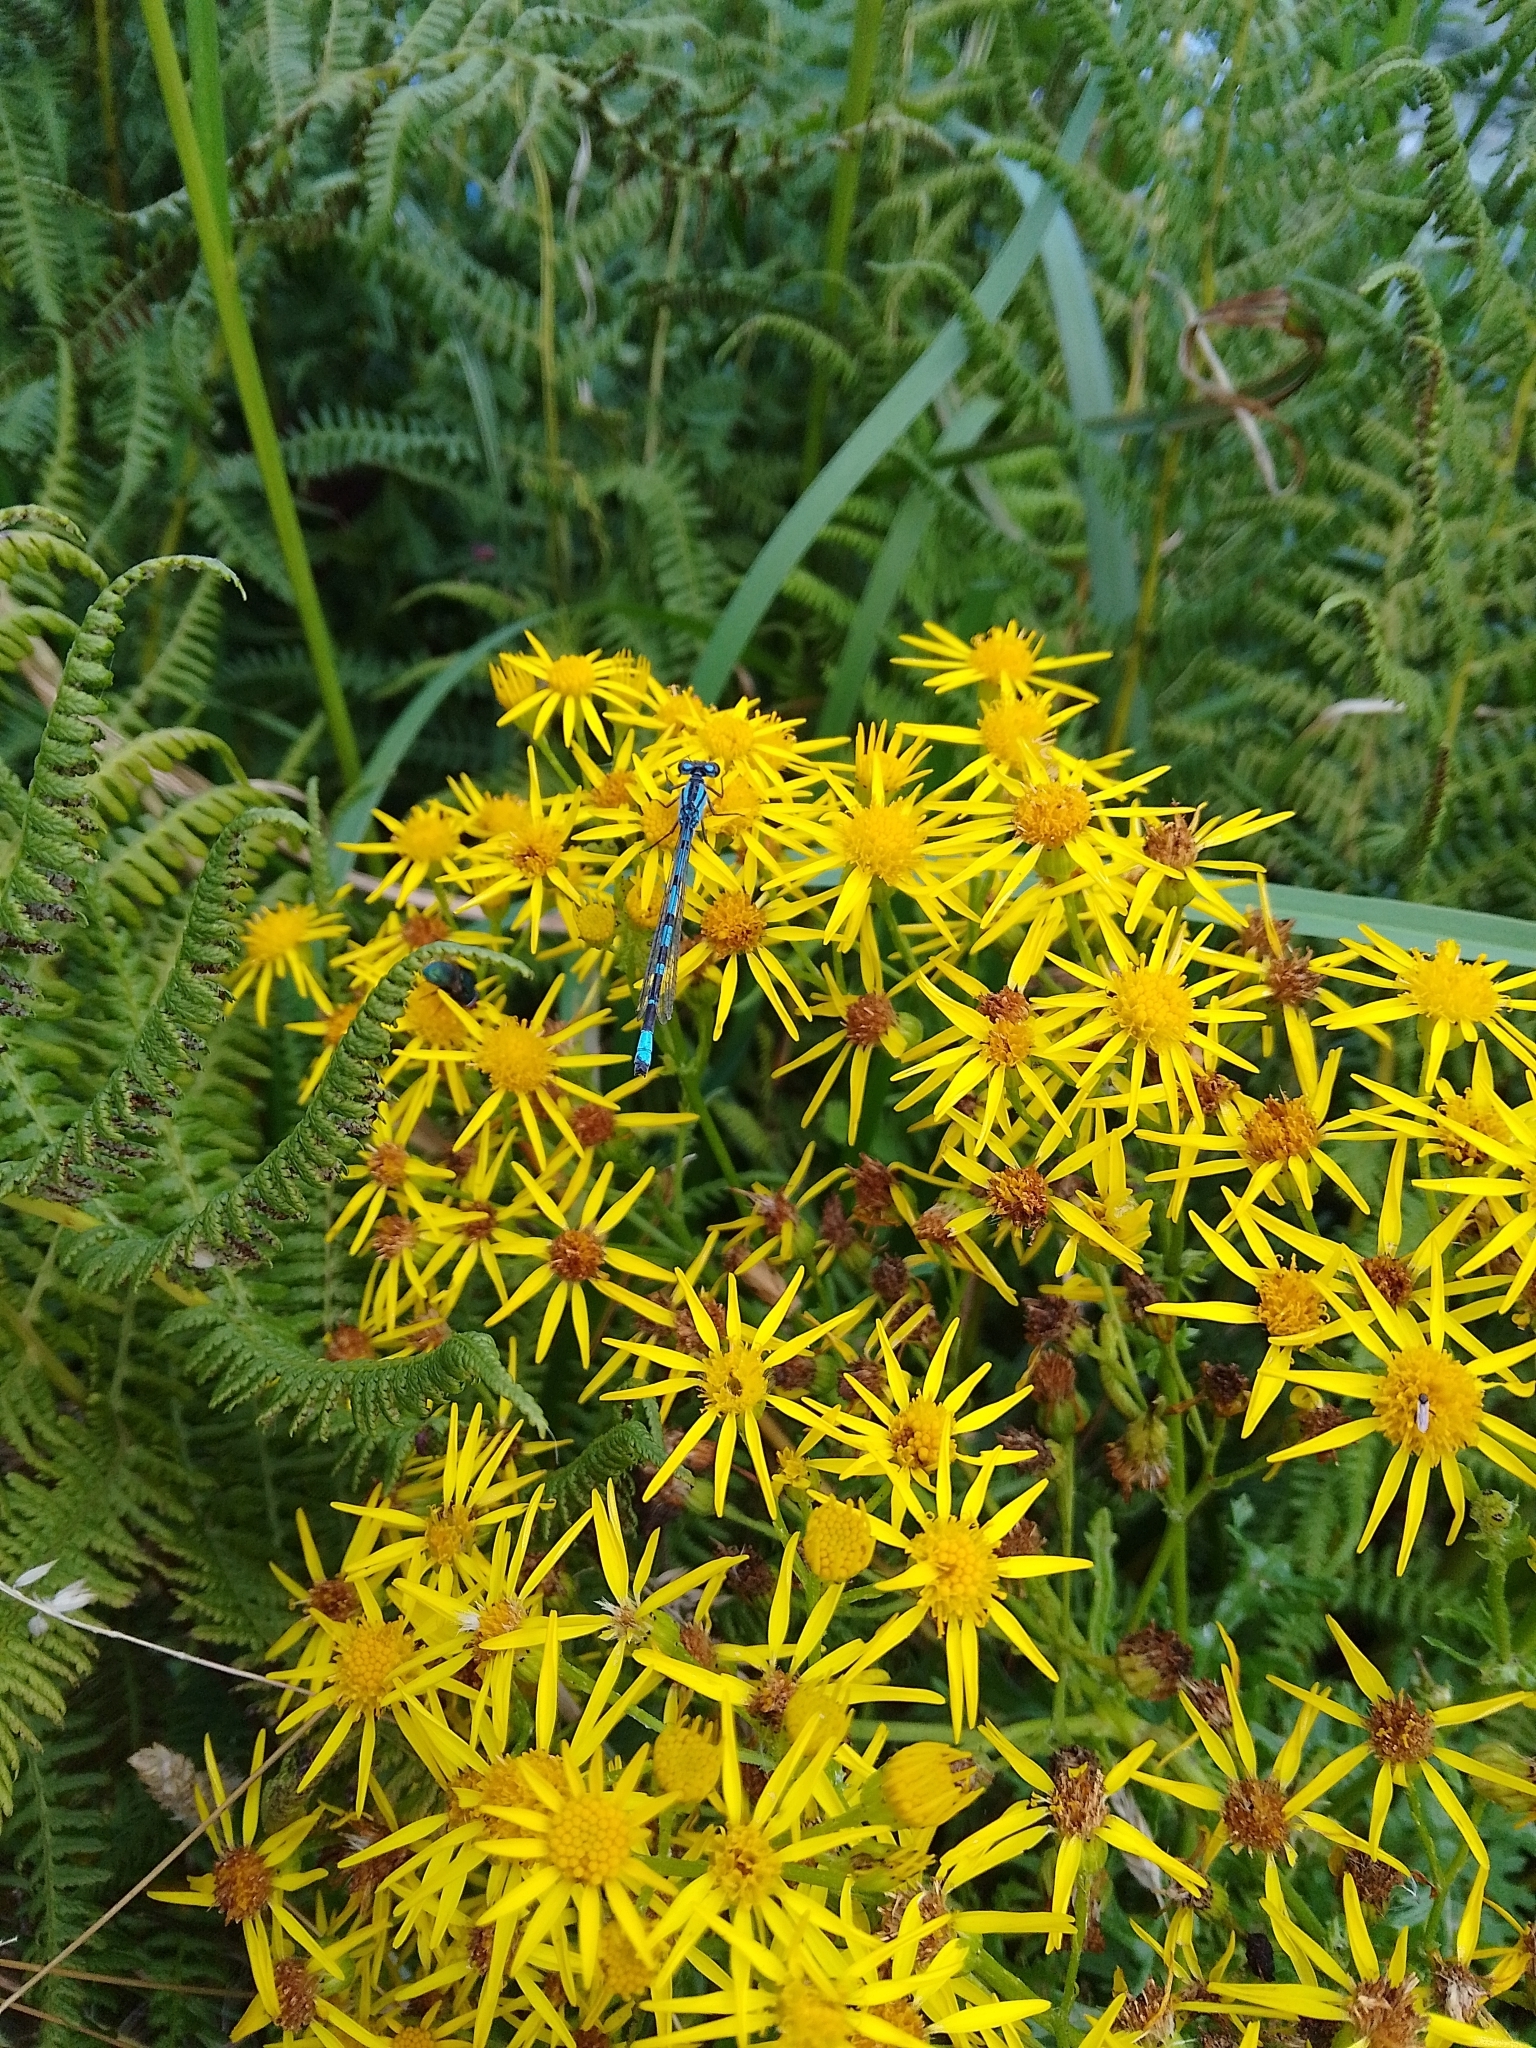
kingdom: Animalia
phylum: Arthropoda
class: Insecta
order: Odonata
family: Coenagrionidae
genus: Enallagma
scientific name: Enallagma cyathigerum
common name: Common blue damselfly
